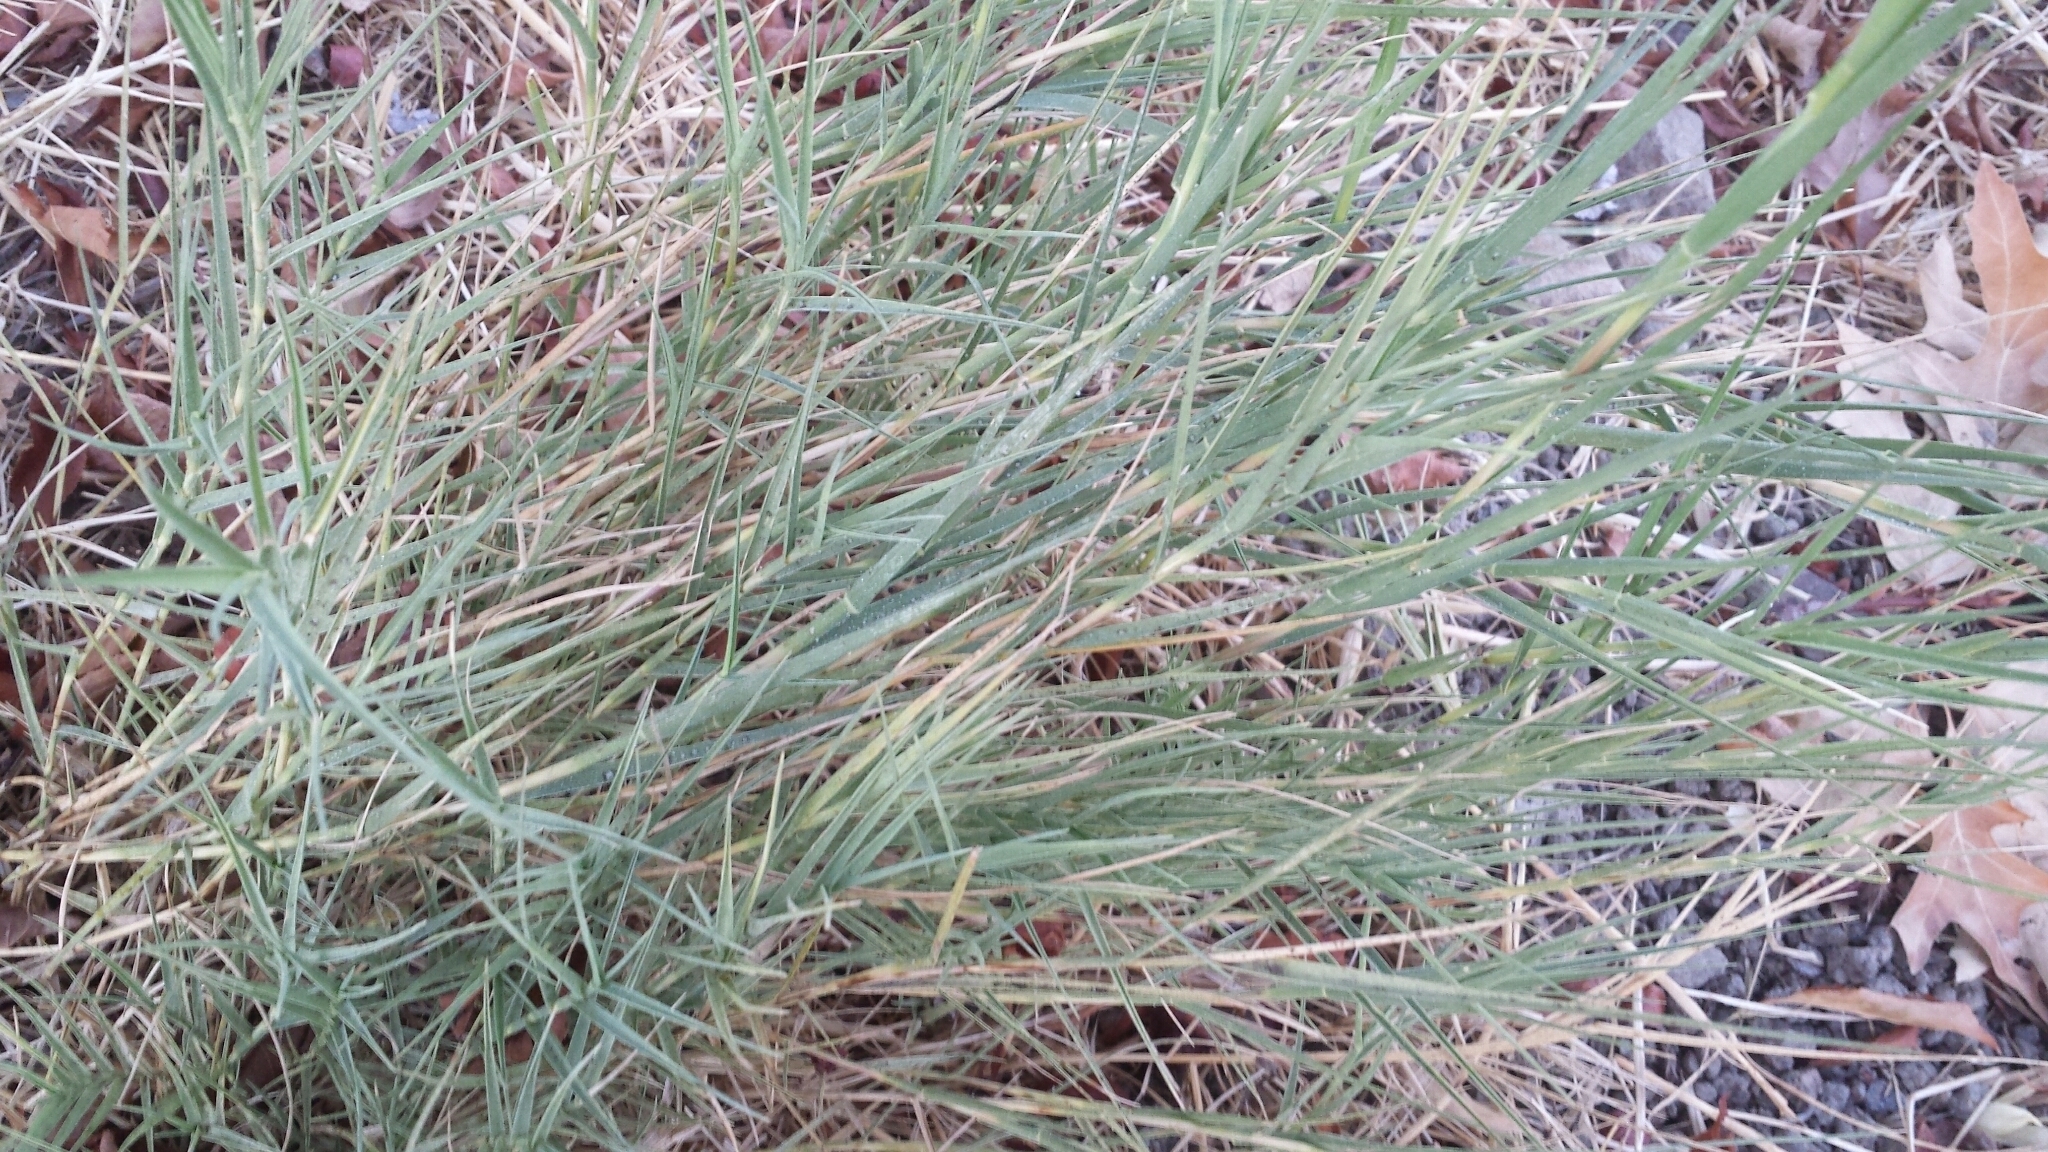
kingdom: Plantae
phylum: Tracheophyta
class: Liliopsida
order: Poales
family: Poaceae
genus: Distichlis
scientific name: Distichlis spicata
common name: Saltgrass
